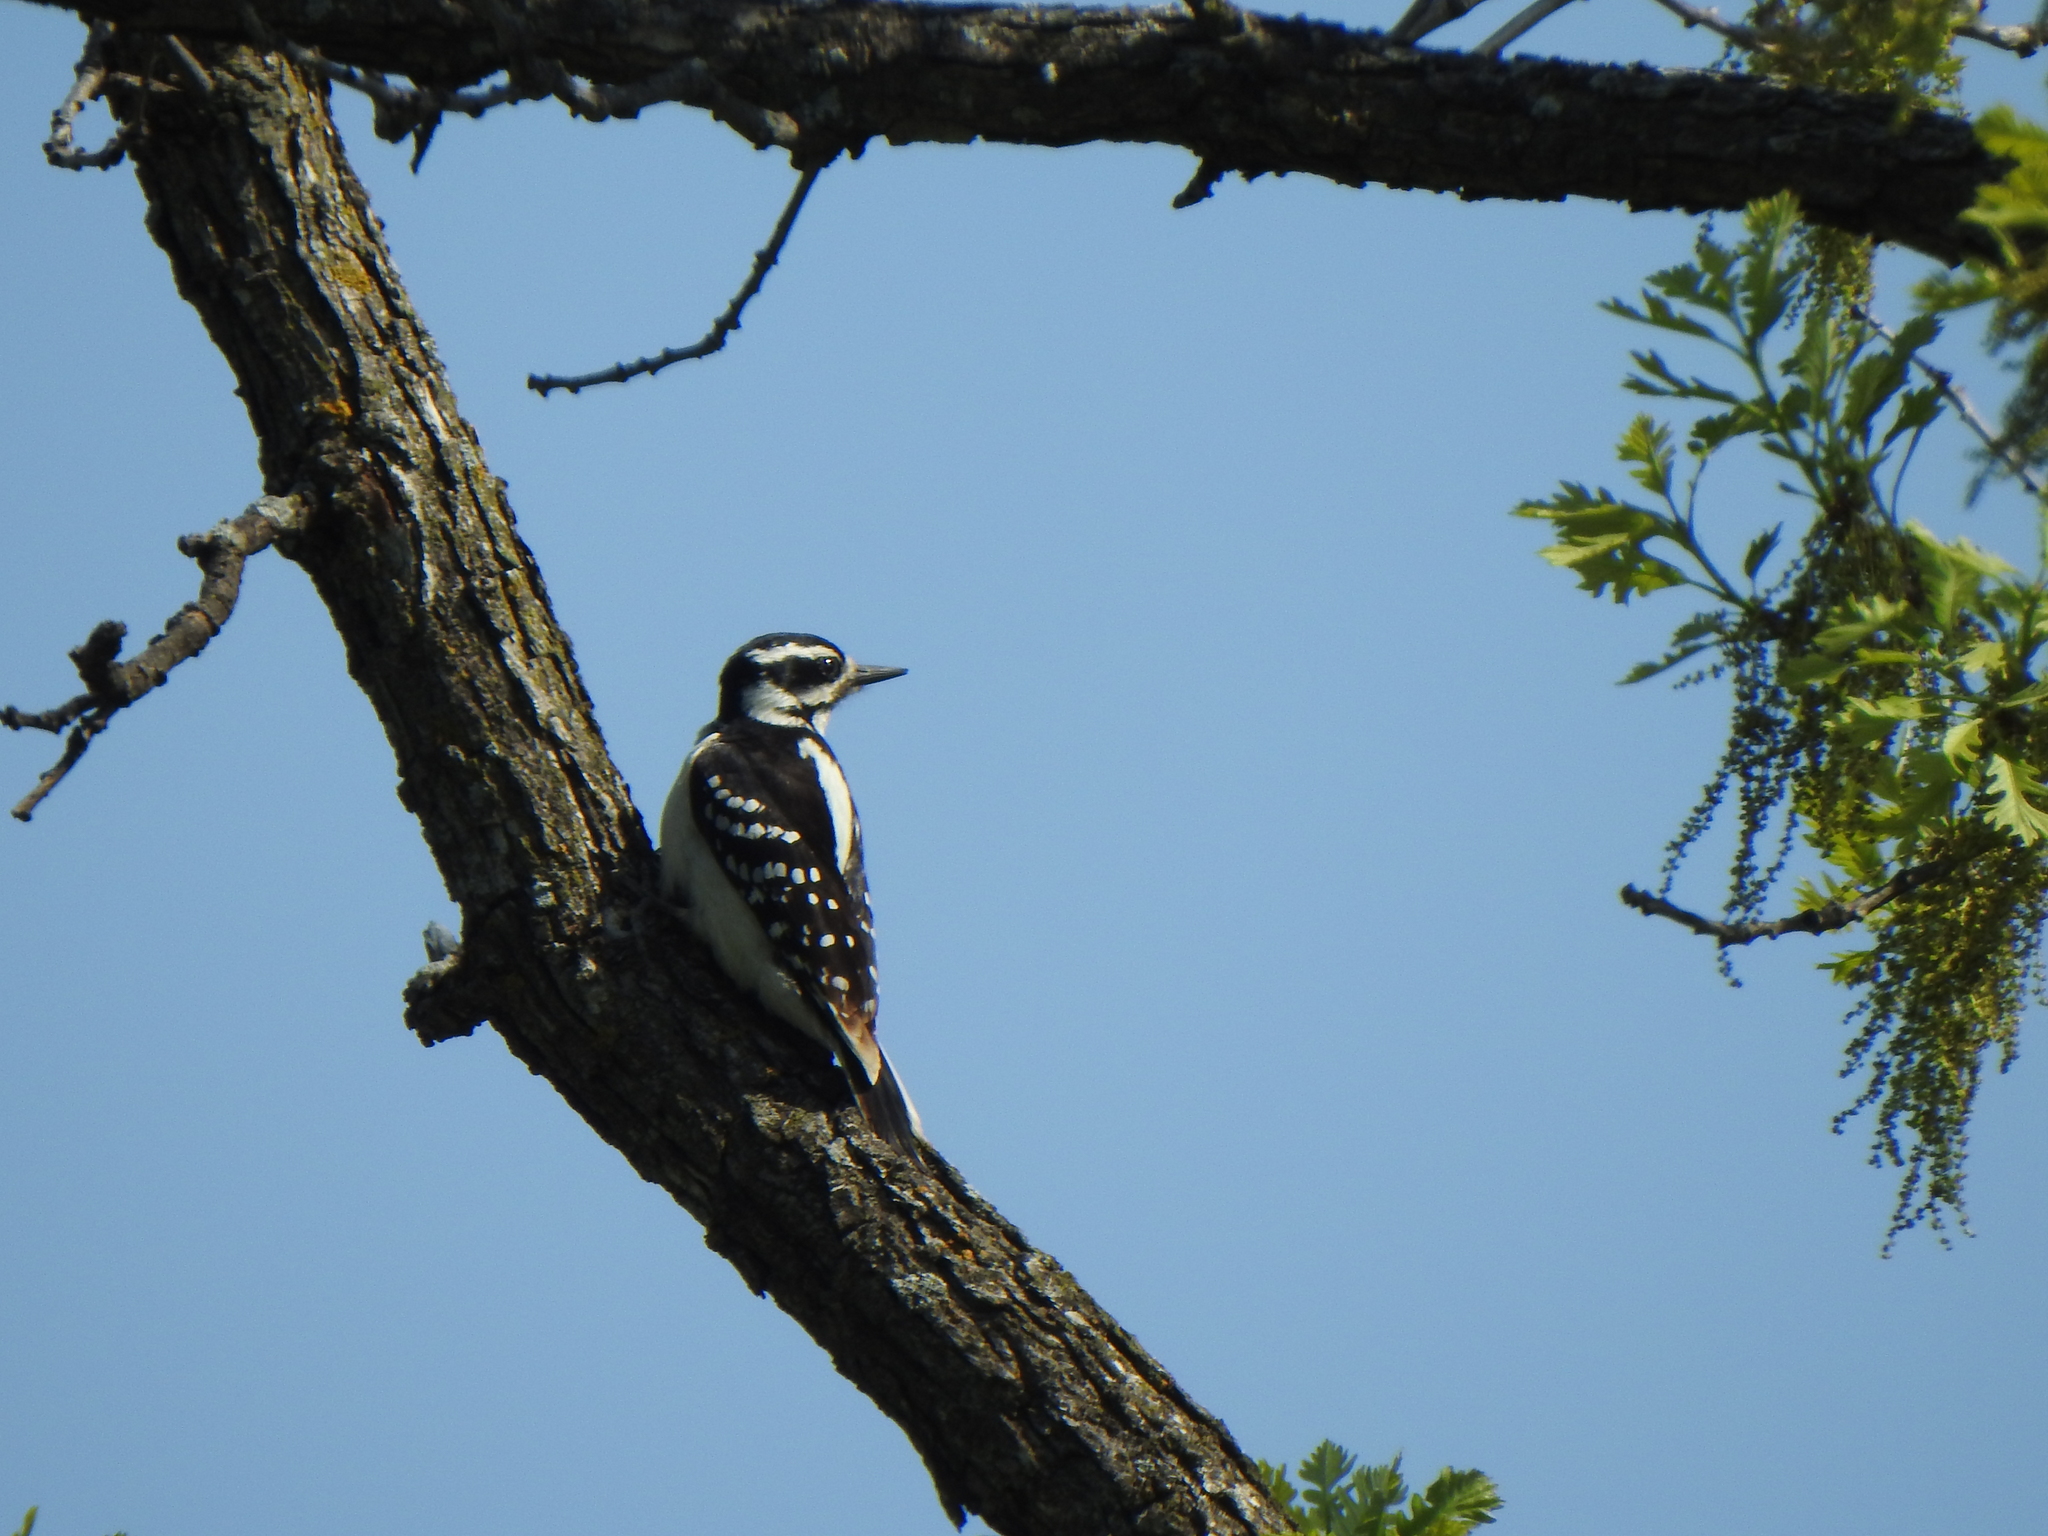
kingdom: Animalia
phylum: Chordata
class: Aves
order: Piciformes
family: Picidae
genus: Leuconotopicus
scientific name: Leuconotopicus villosus
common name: Hairy woodpecker
